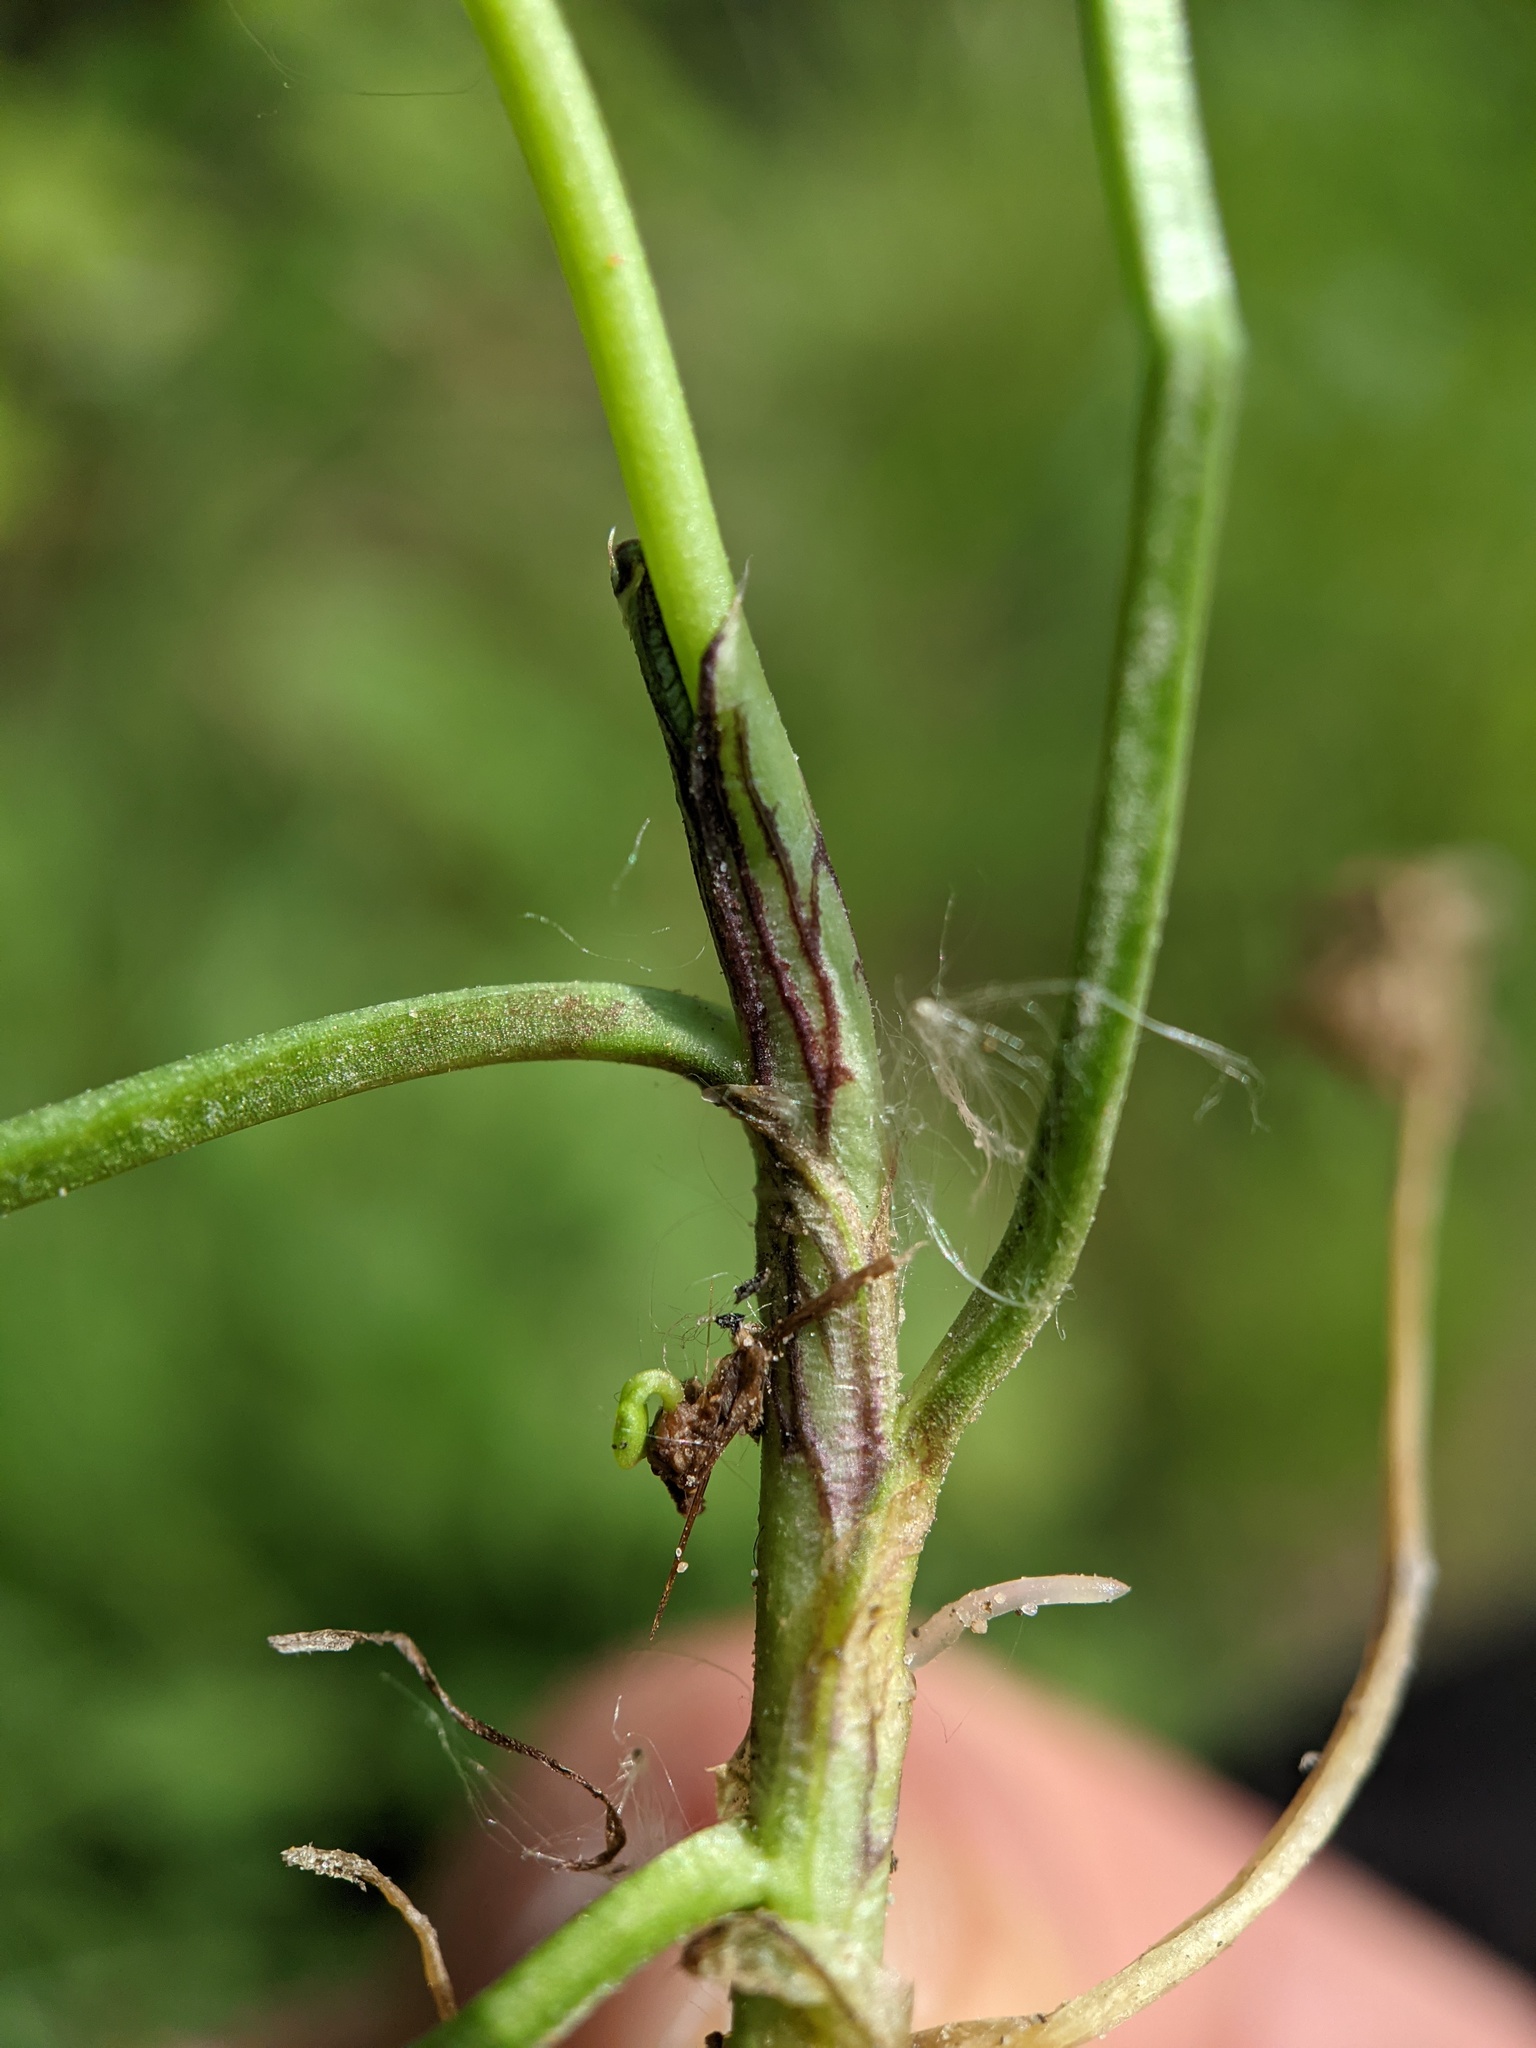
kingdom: Plantae
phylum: Tracheophyta
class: Magnoliopsida
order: Fabales
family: Fabaceae
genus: Trifolium
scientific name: Trifolium repens
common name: White clover
